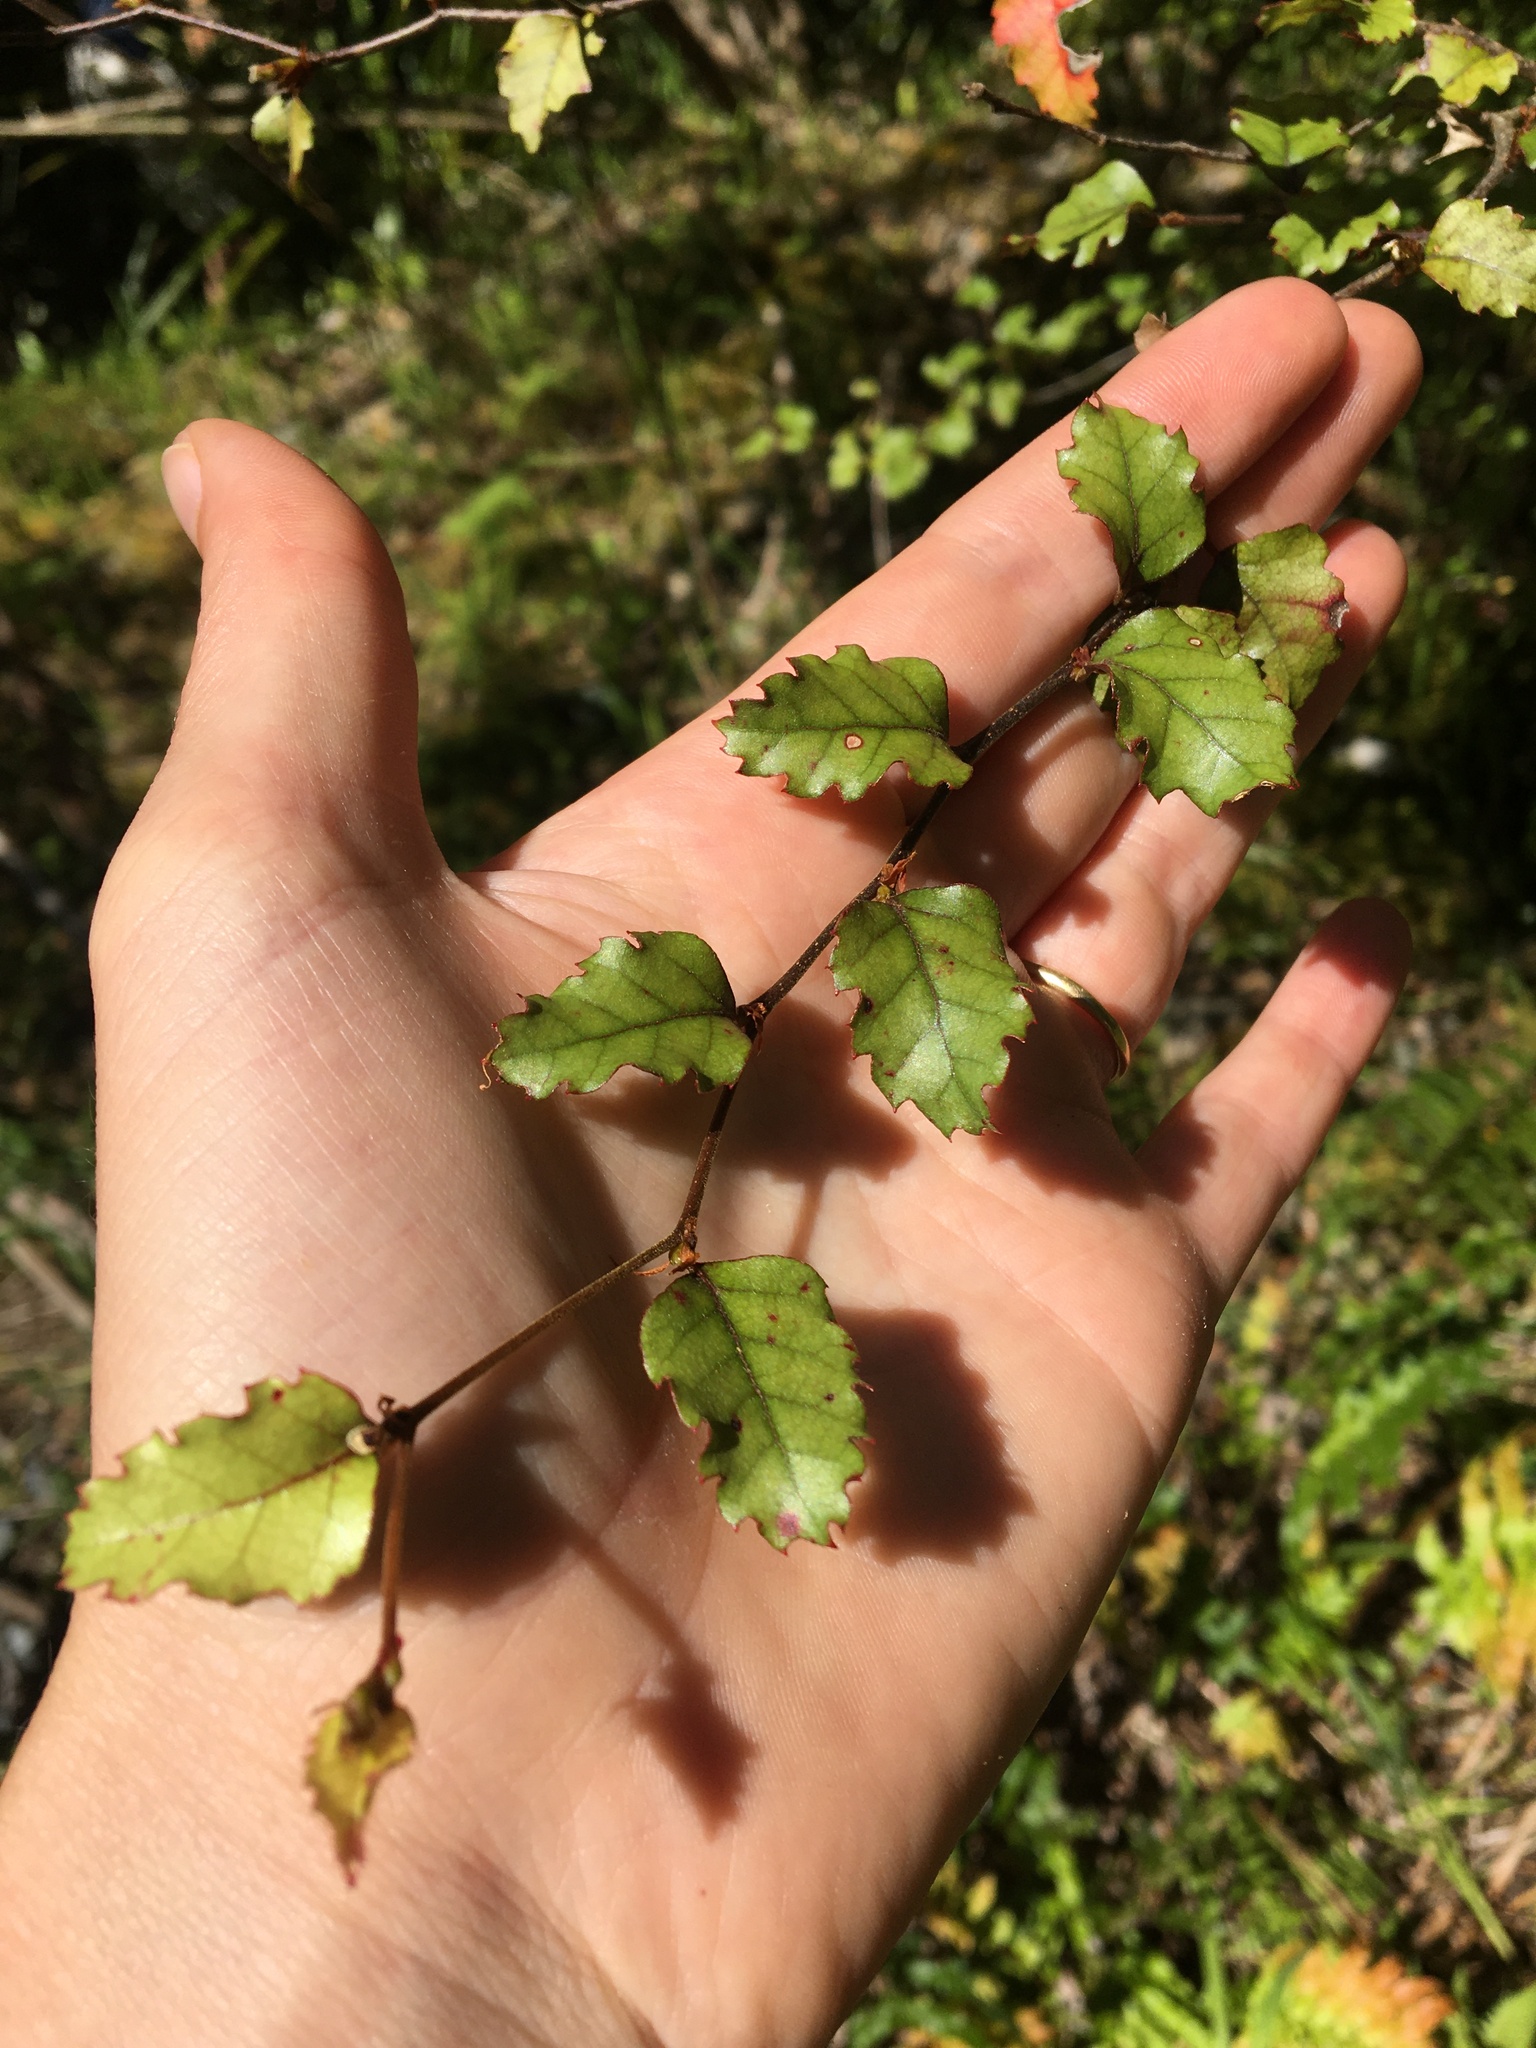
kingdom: Plantae
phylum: Tracheophyta
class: Magnoliopsida
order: Fagales
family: Nothofagaceae
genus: Nothofagus
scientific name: Nothofagus fusca
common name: Red beech
